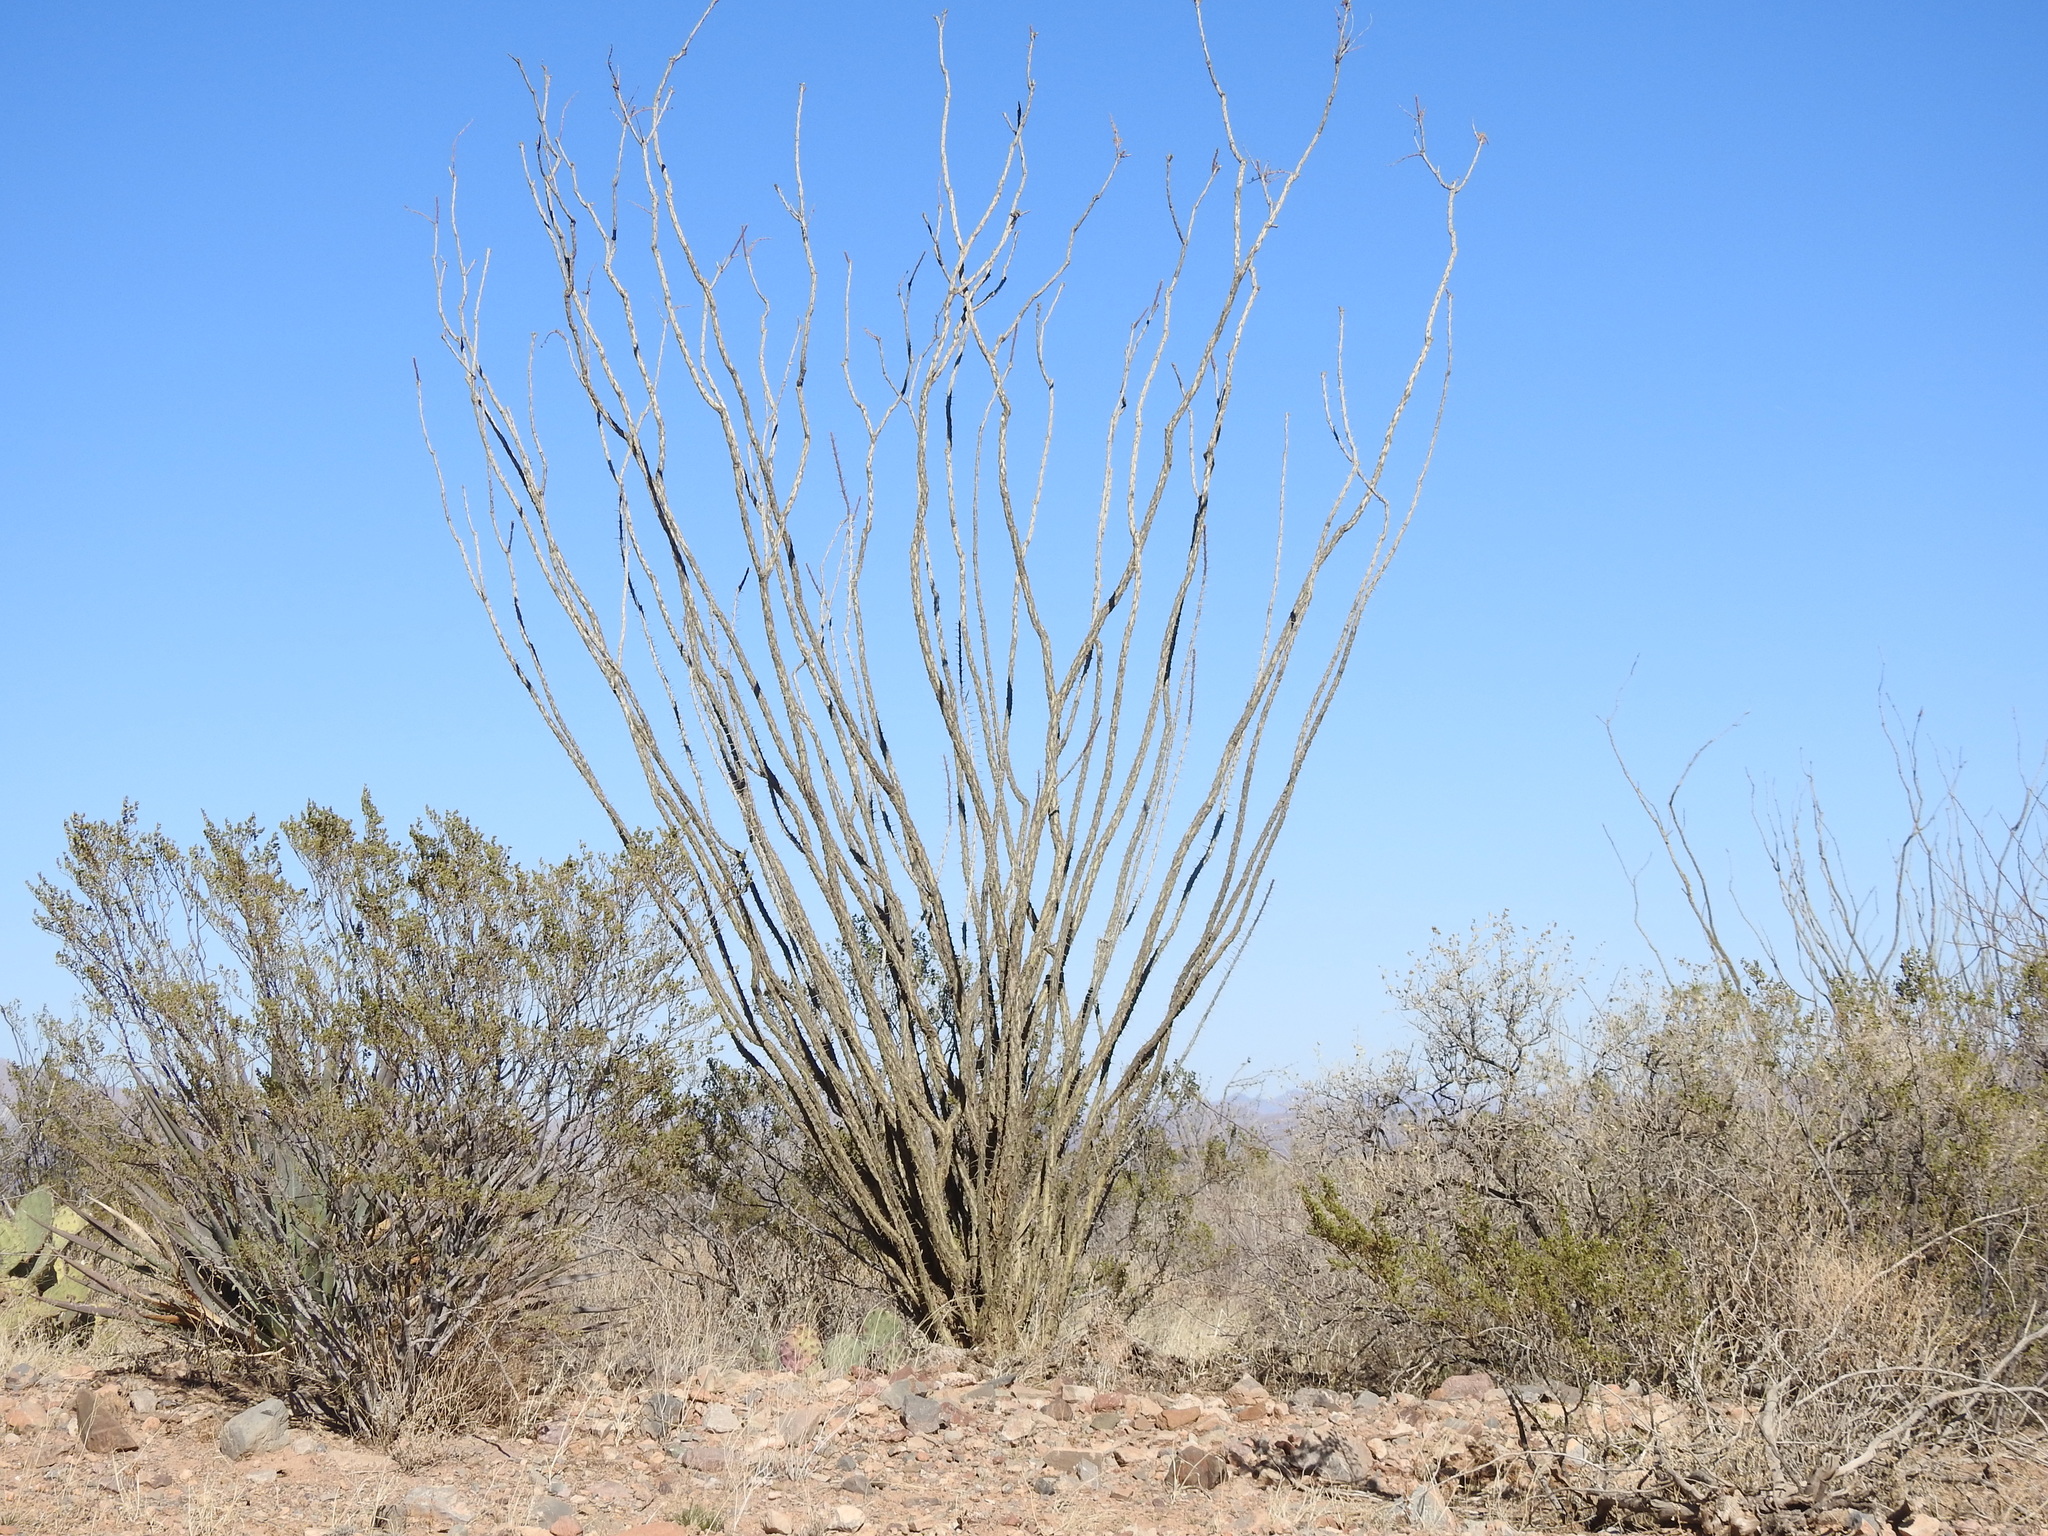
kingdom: Plantae
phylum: Tracheophyta
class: Magnoliopsida
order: Ericales
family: Fouquieriaceae
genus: Fouquieria
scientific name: Fouquieria splendens
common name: Vine-cactus
